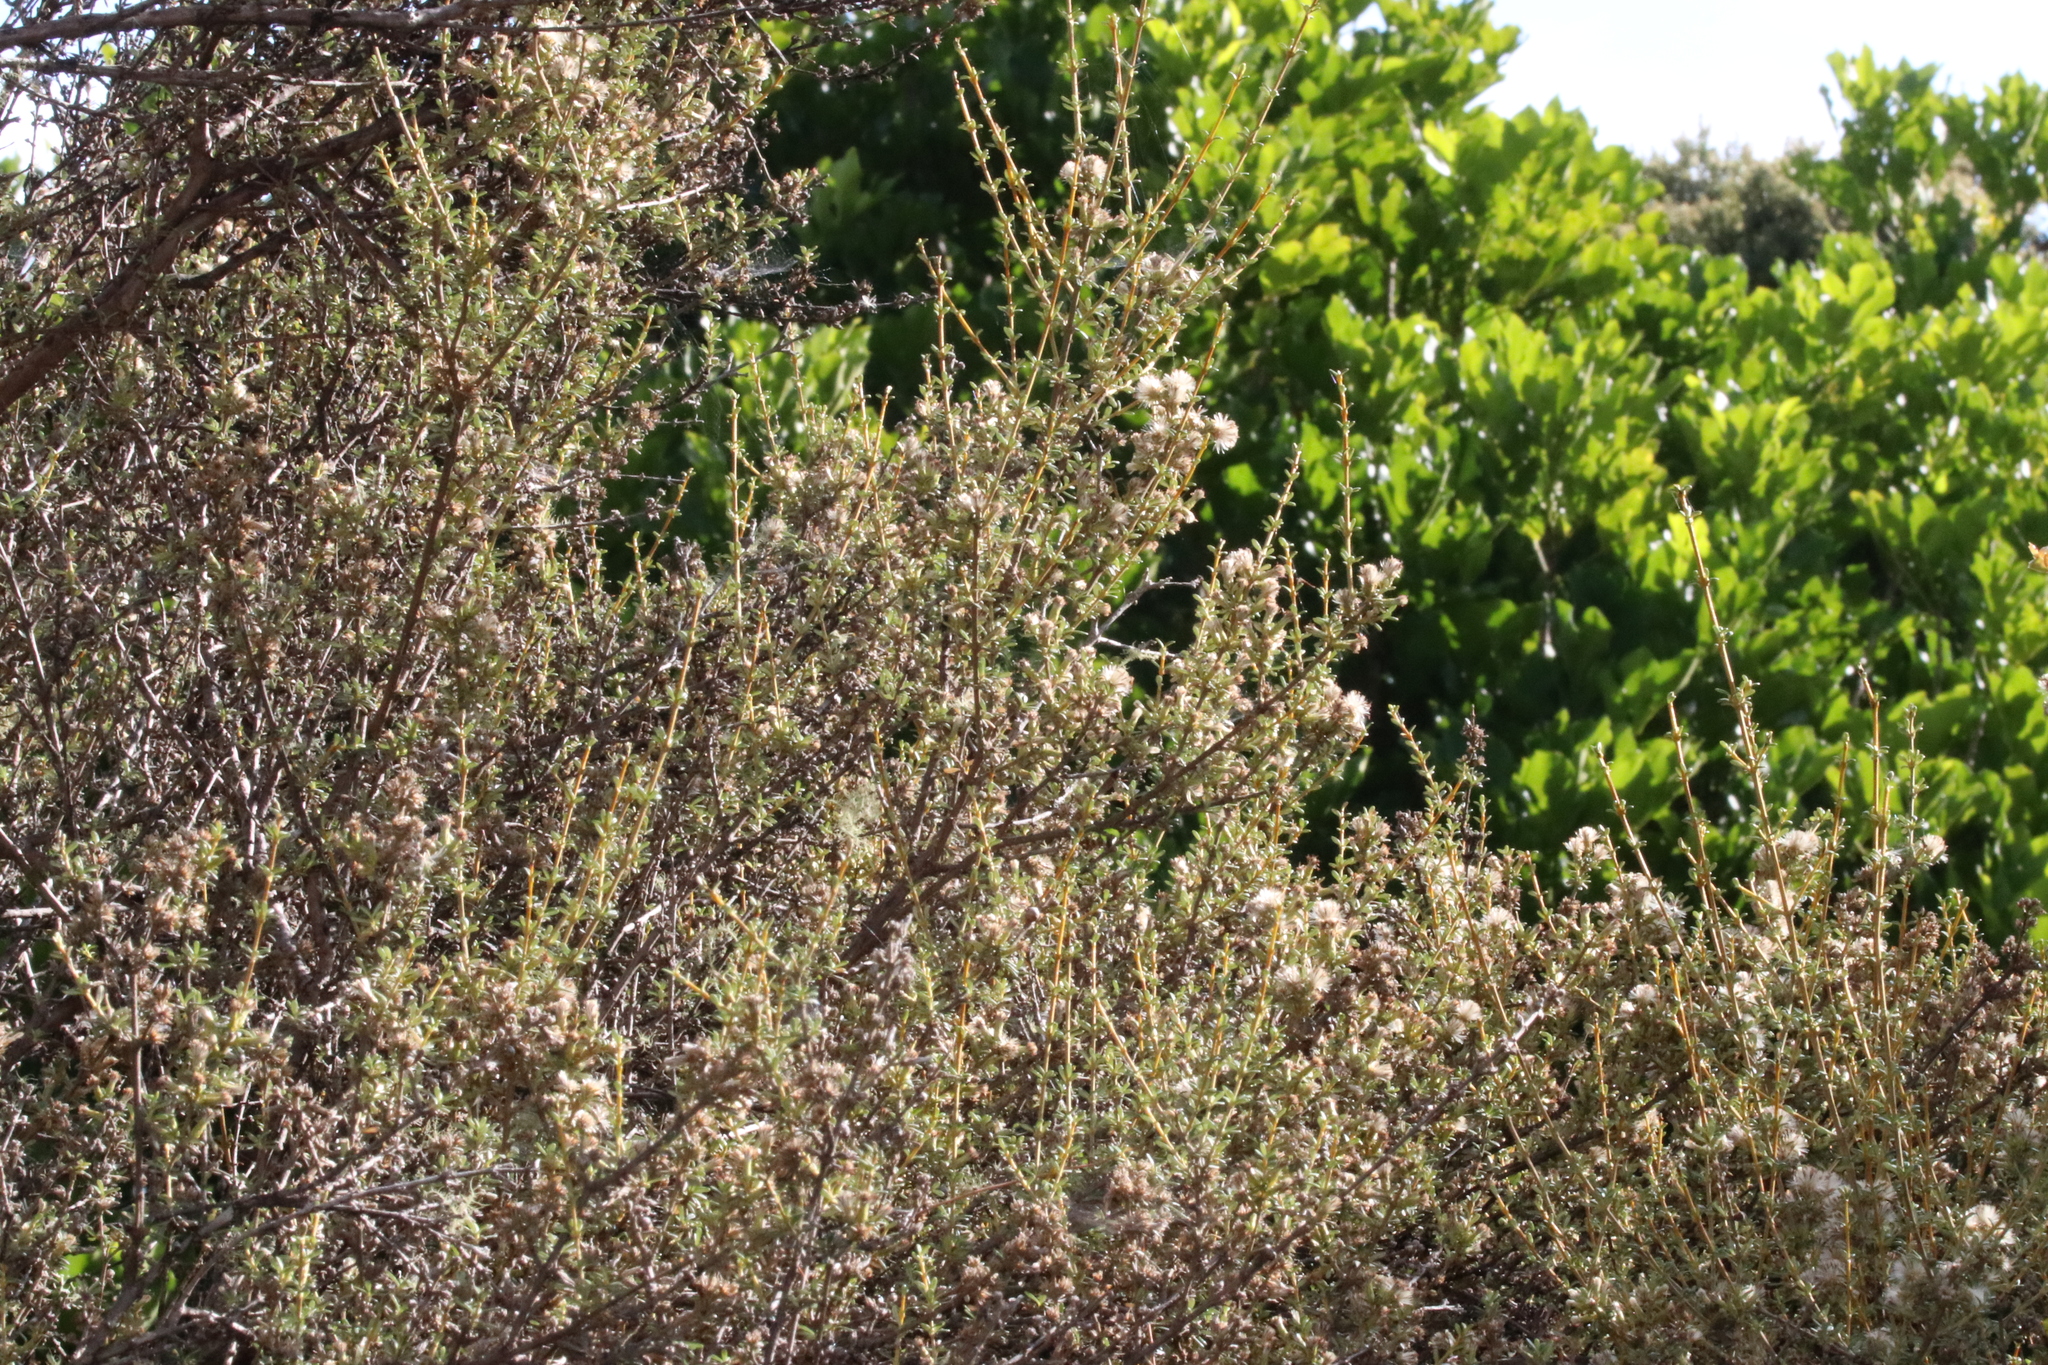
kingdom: Plantae
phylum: Tracheophyta
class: Magnoliopsida
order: Asterales
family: Asteraceae
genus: Olearia
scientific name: Olearia solandri
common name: Coastal daisybush
